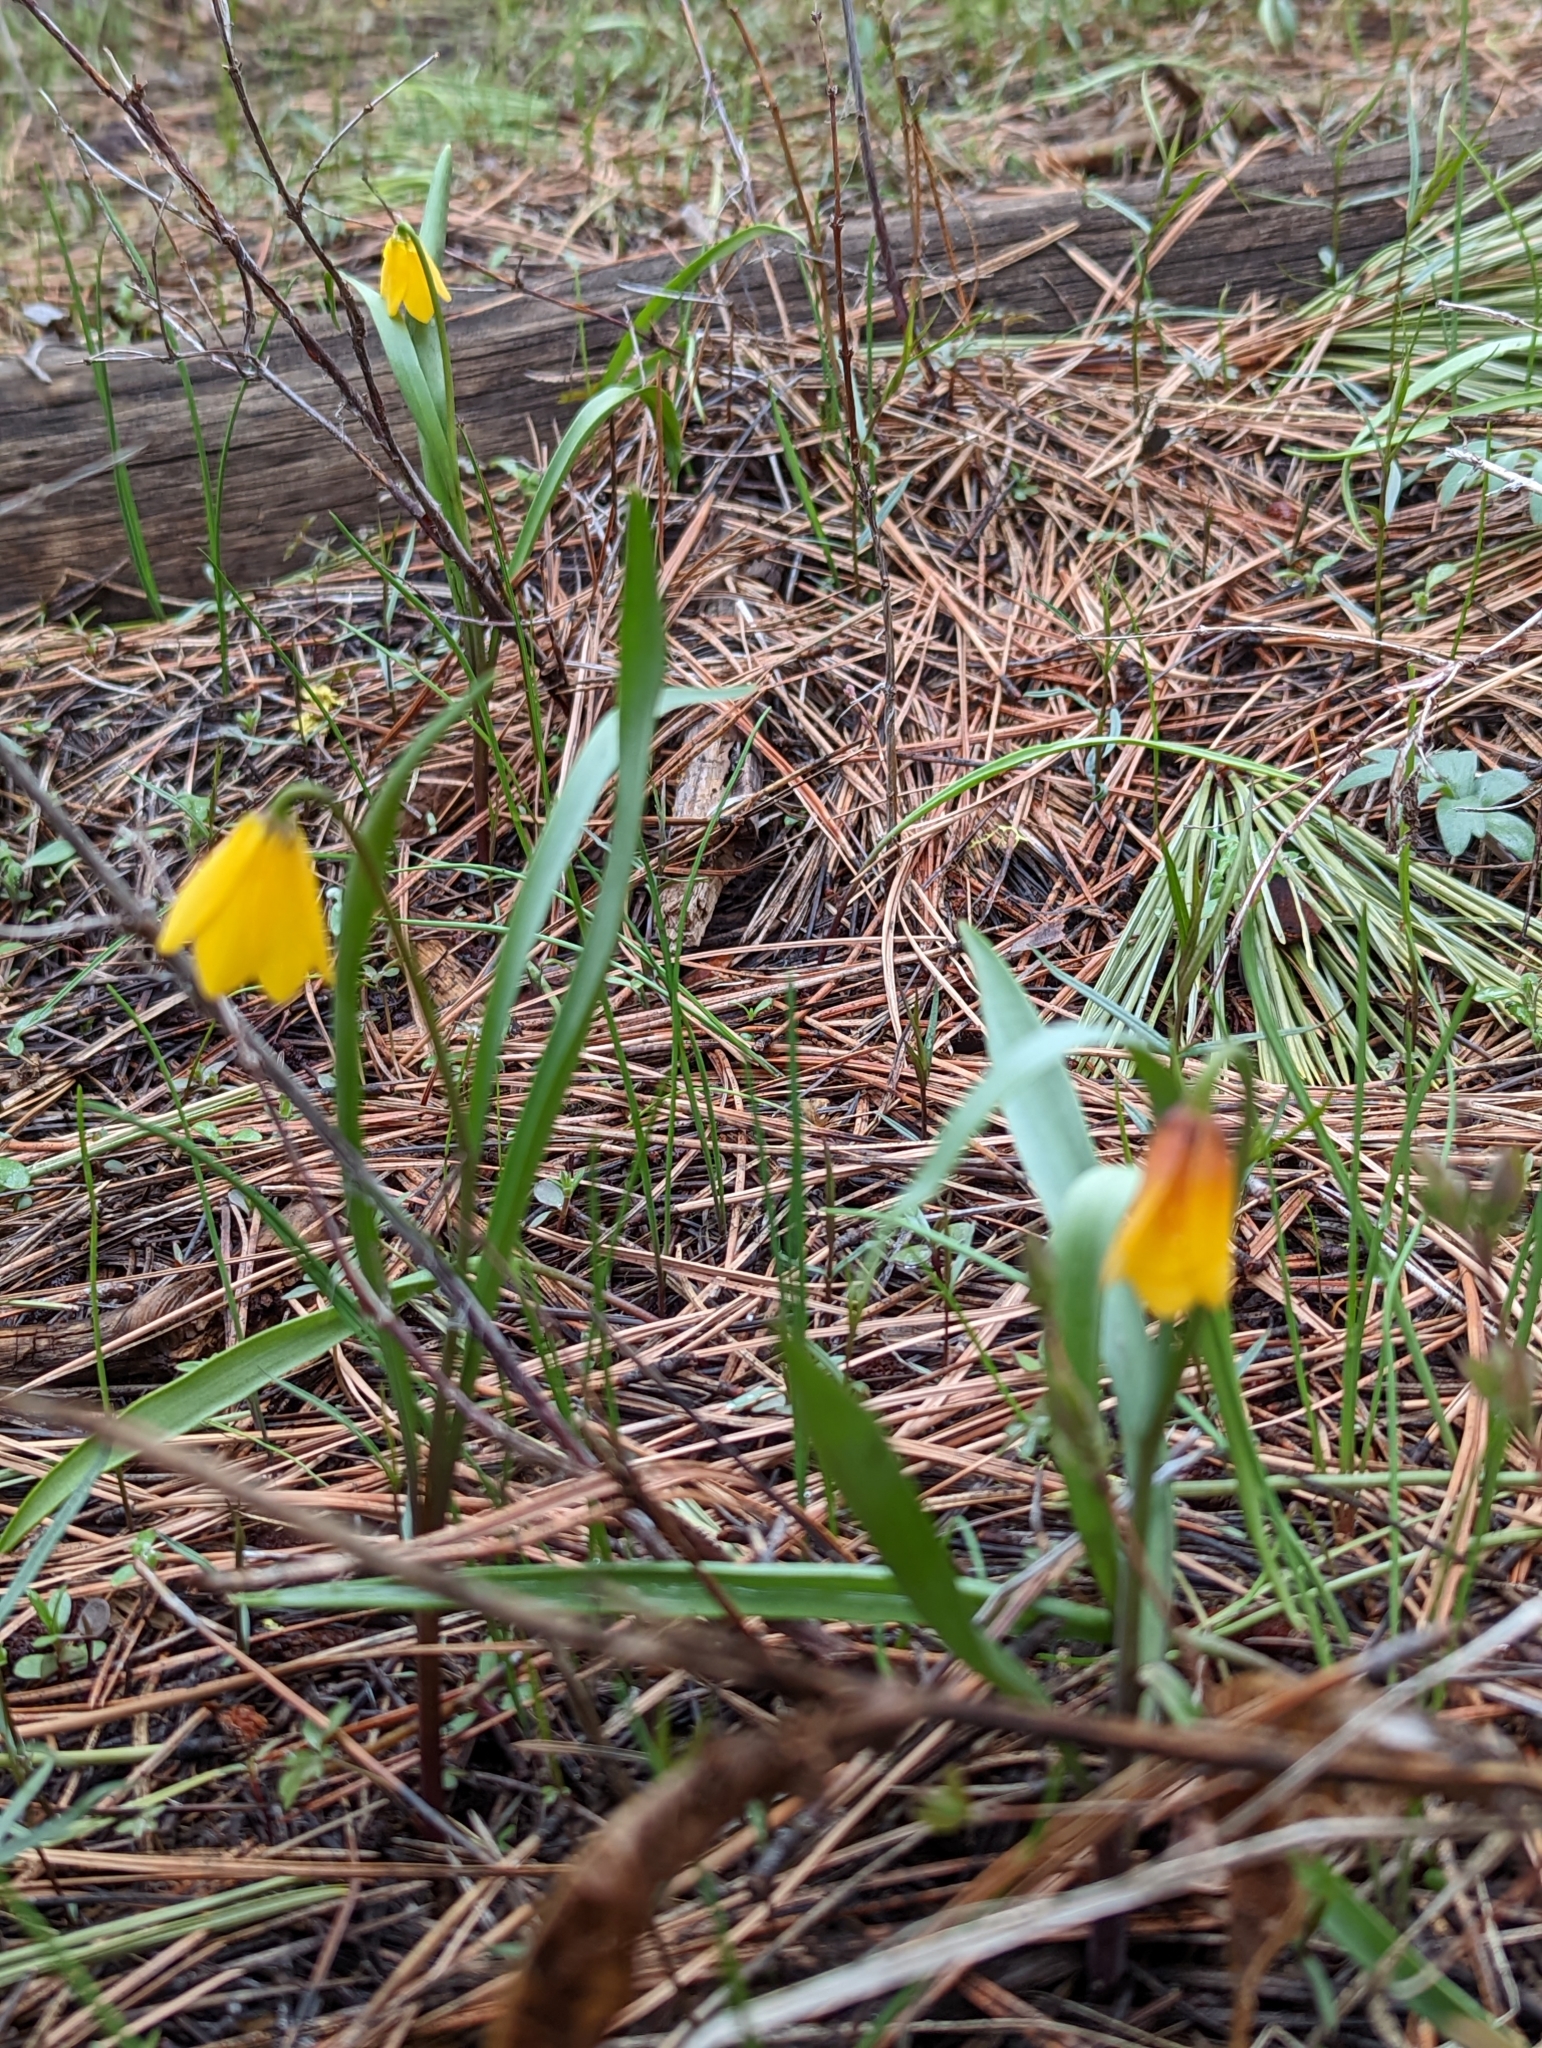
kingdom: Plantae
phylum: Tracheophyta
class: Liliopsida
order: Liliales
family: Liliaceae
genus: Fritillaria
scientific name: Fritillaria pudica
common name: Yellow fritillary
